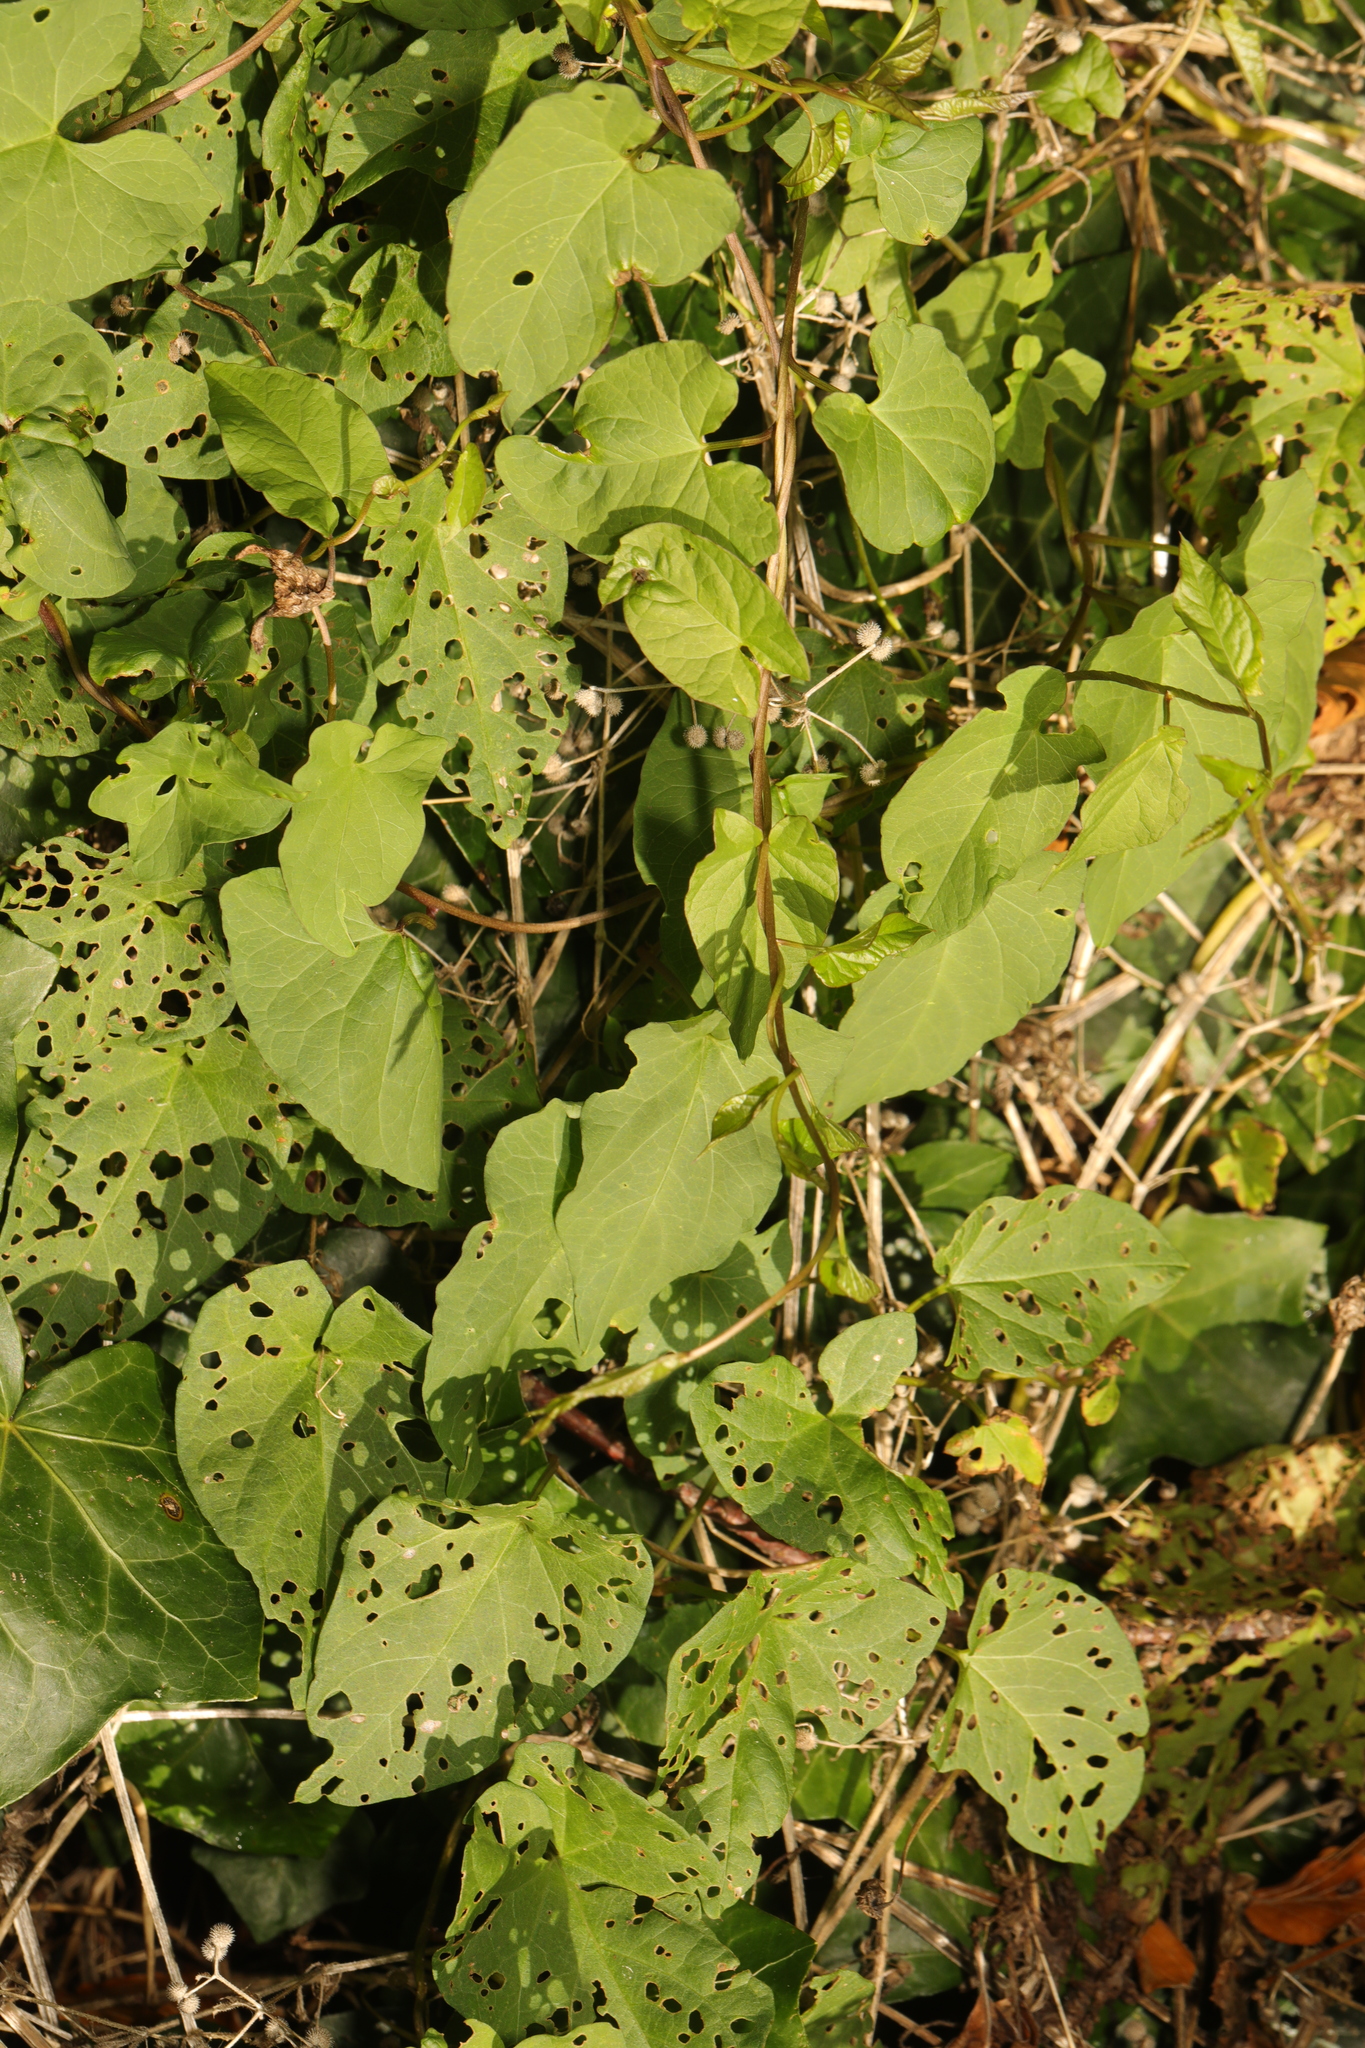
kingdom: Plantae
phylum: Tracheophyta
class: Magnoliopsida
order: Solanales
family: Convolvulaceae
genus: Calystegia
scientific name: Calystegia
